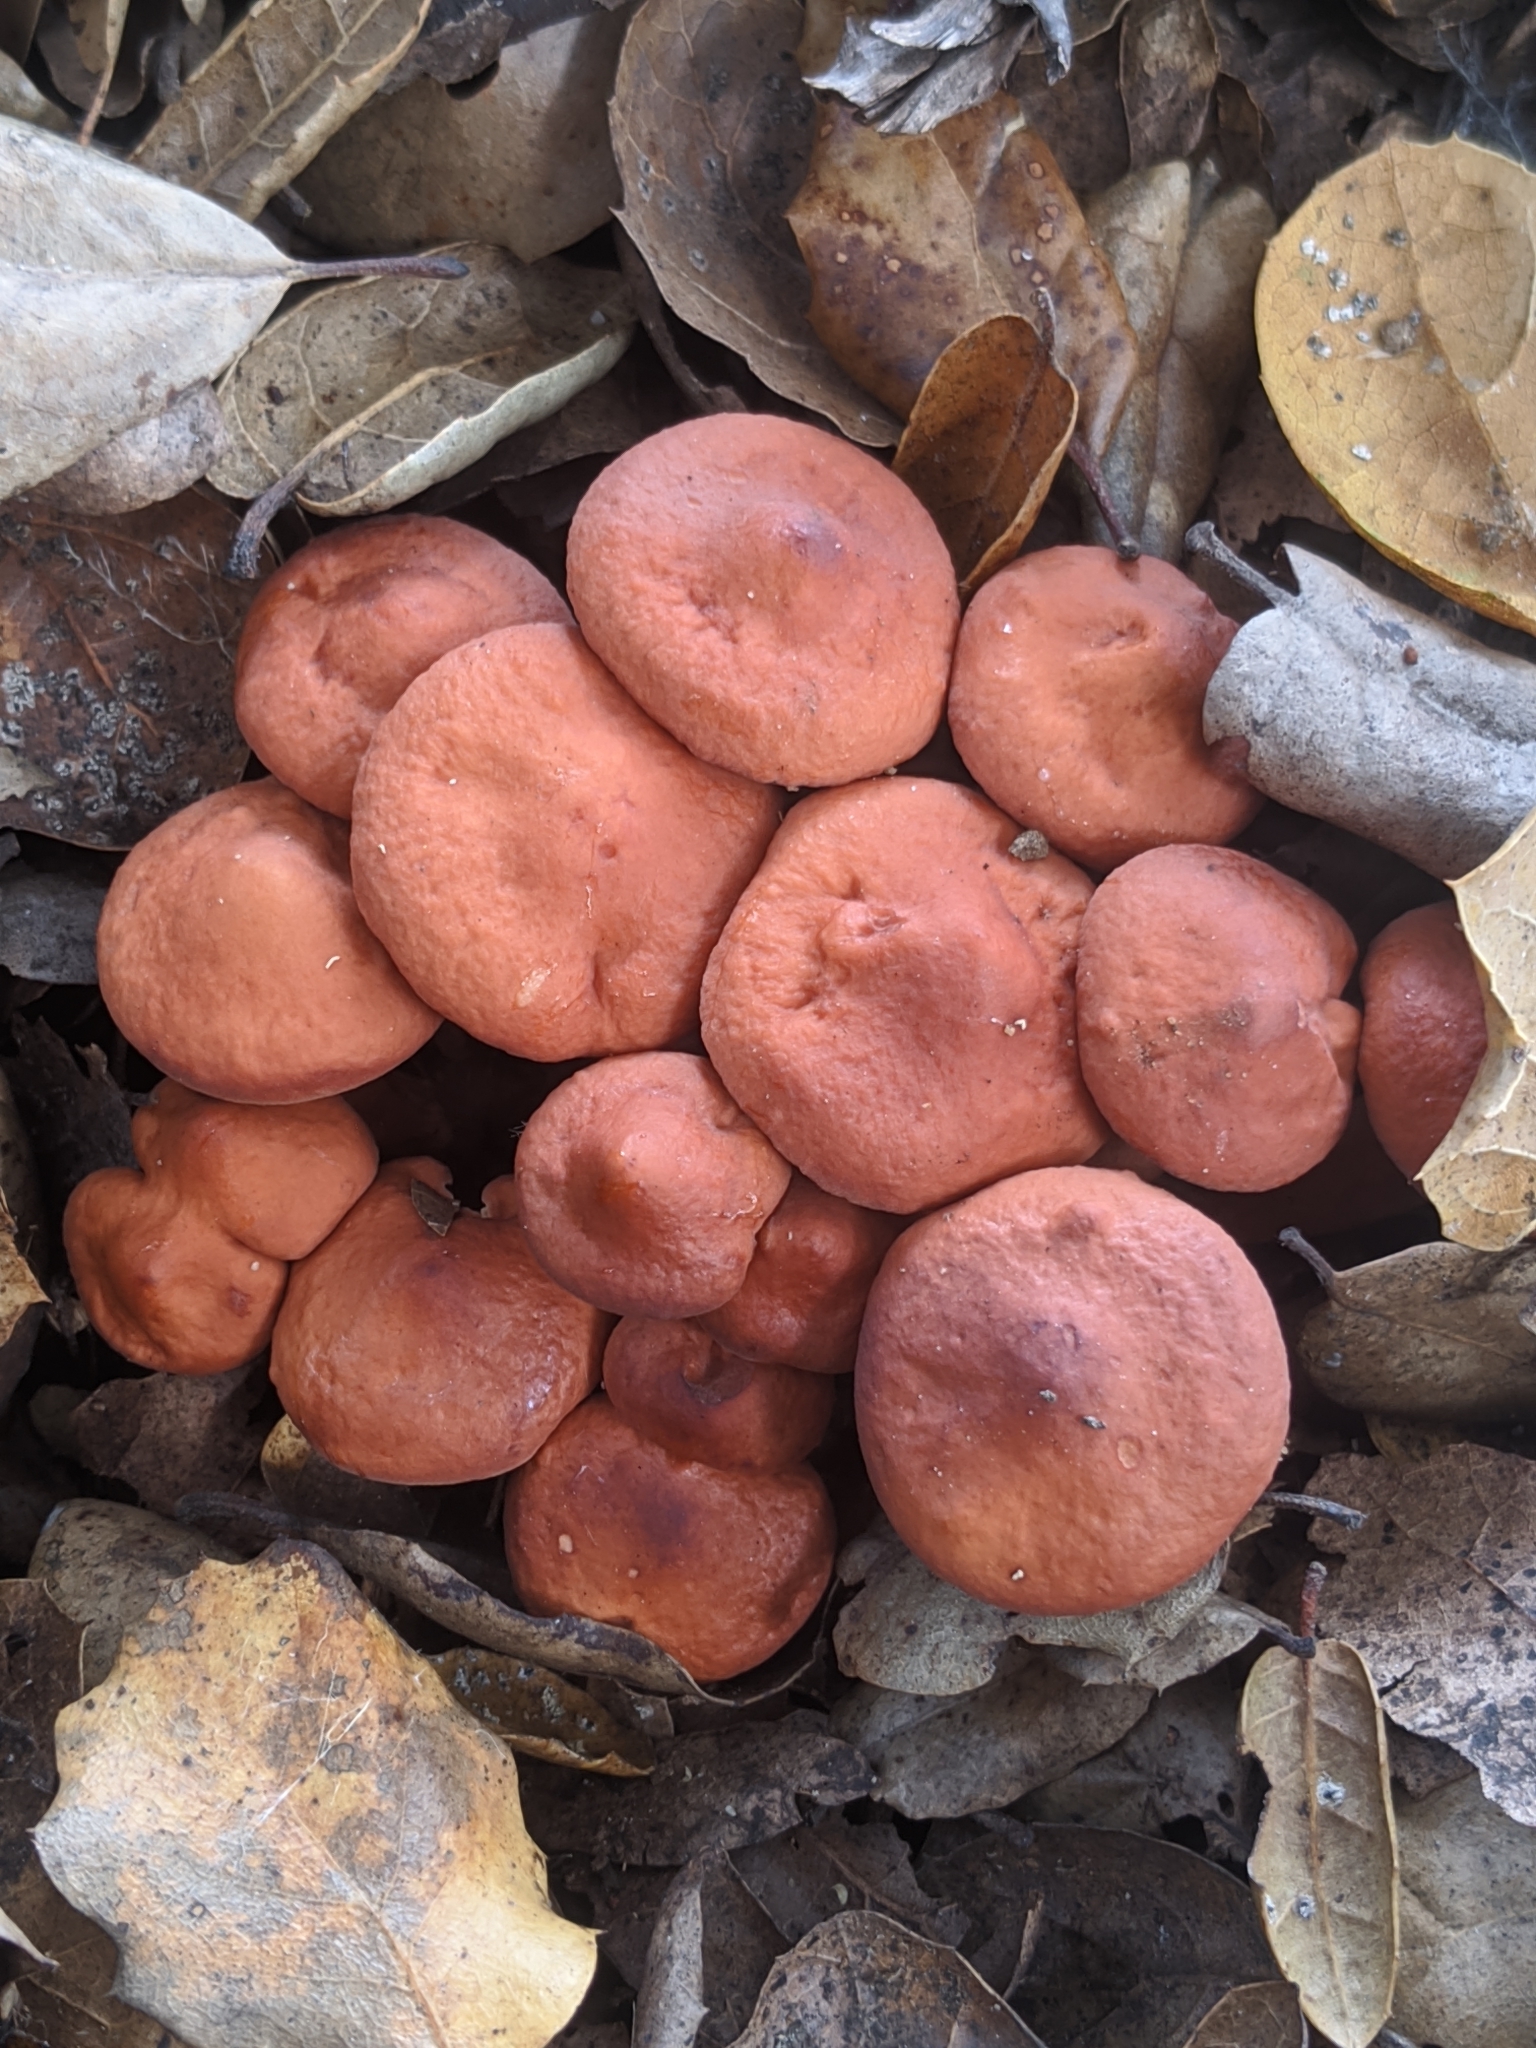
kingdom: Fungi
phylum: Basidiomycota
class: Agaricomycetes
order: Russulales
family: Russulaceae
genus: Lactarius
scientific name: Lactarius rufulus
